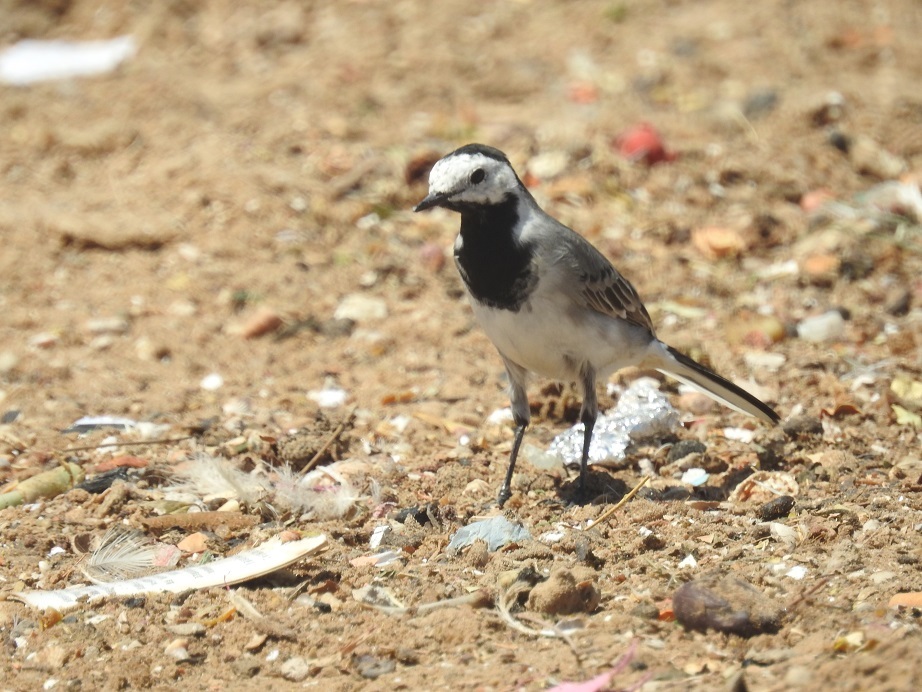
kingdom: Animalia
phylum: Chordata
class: Aves
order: Passeriformes
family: Motacillidae
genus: Motacilla
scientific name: Motacilla alba
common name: White wagtail
